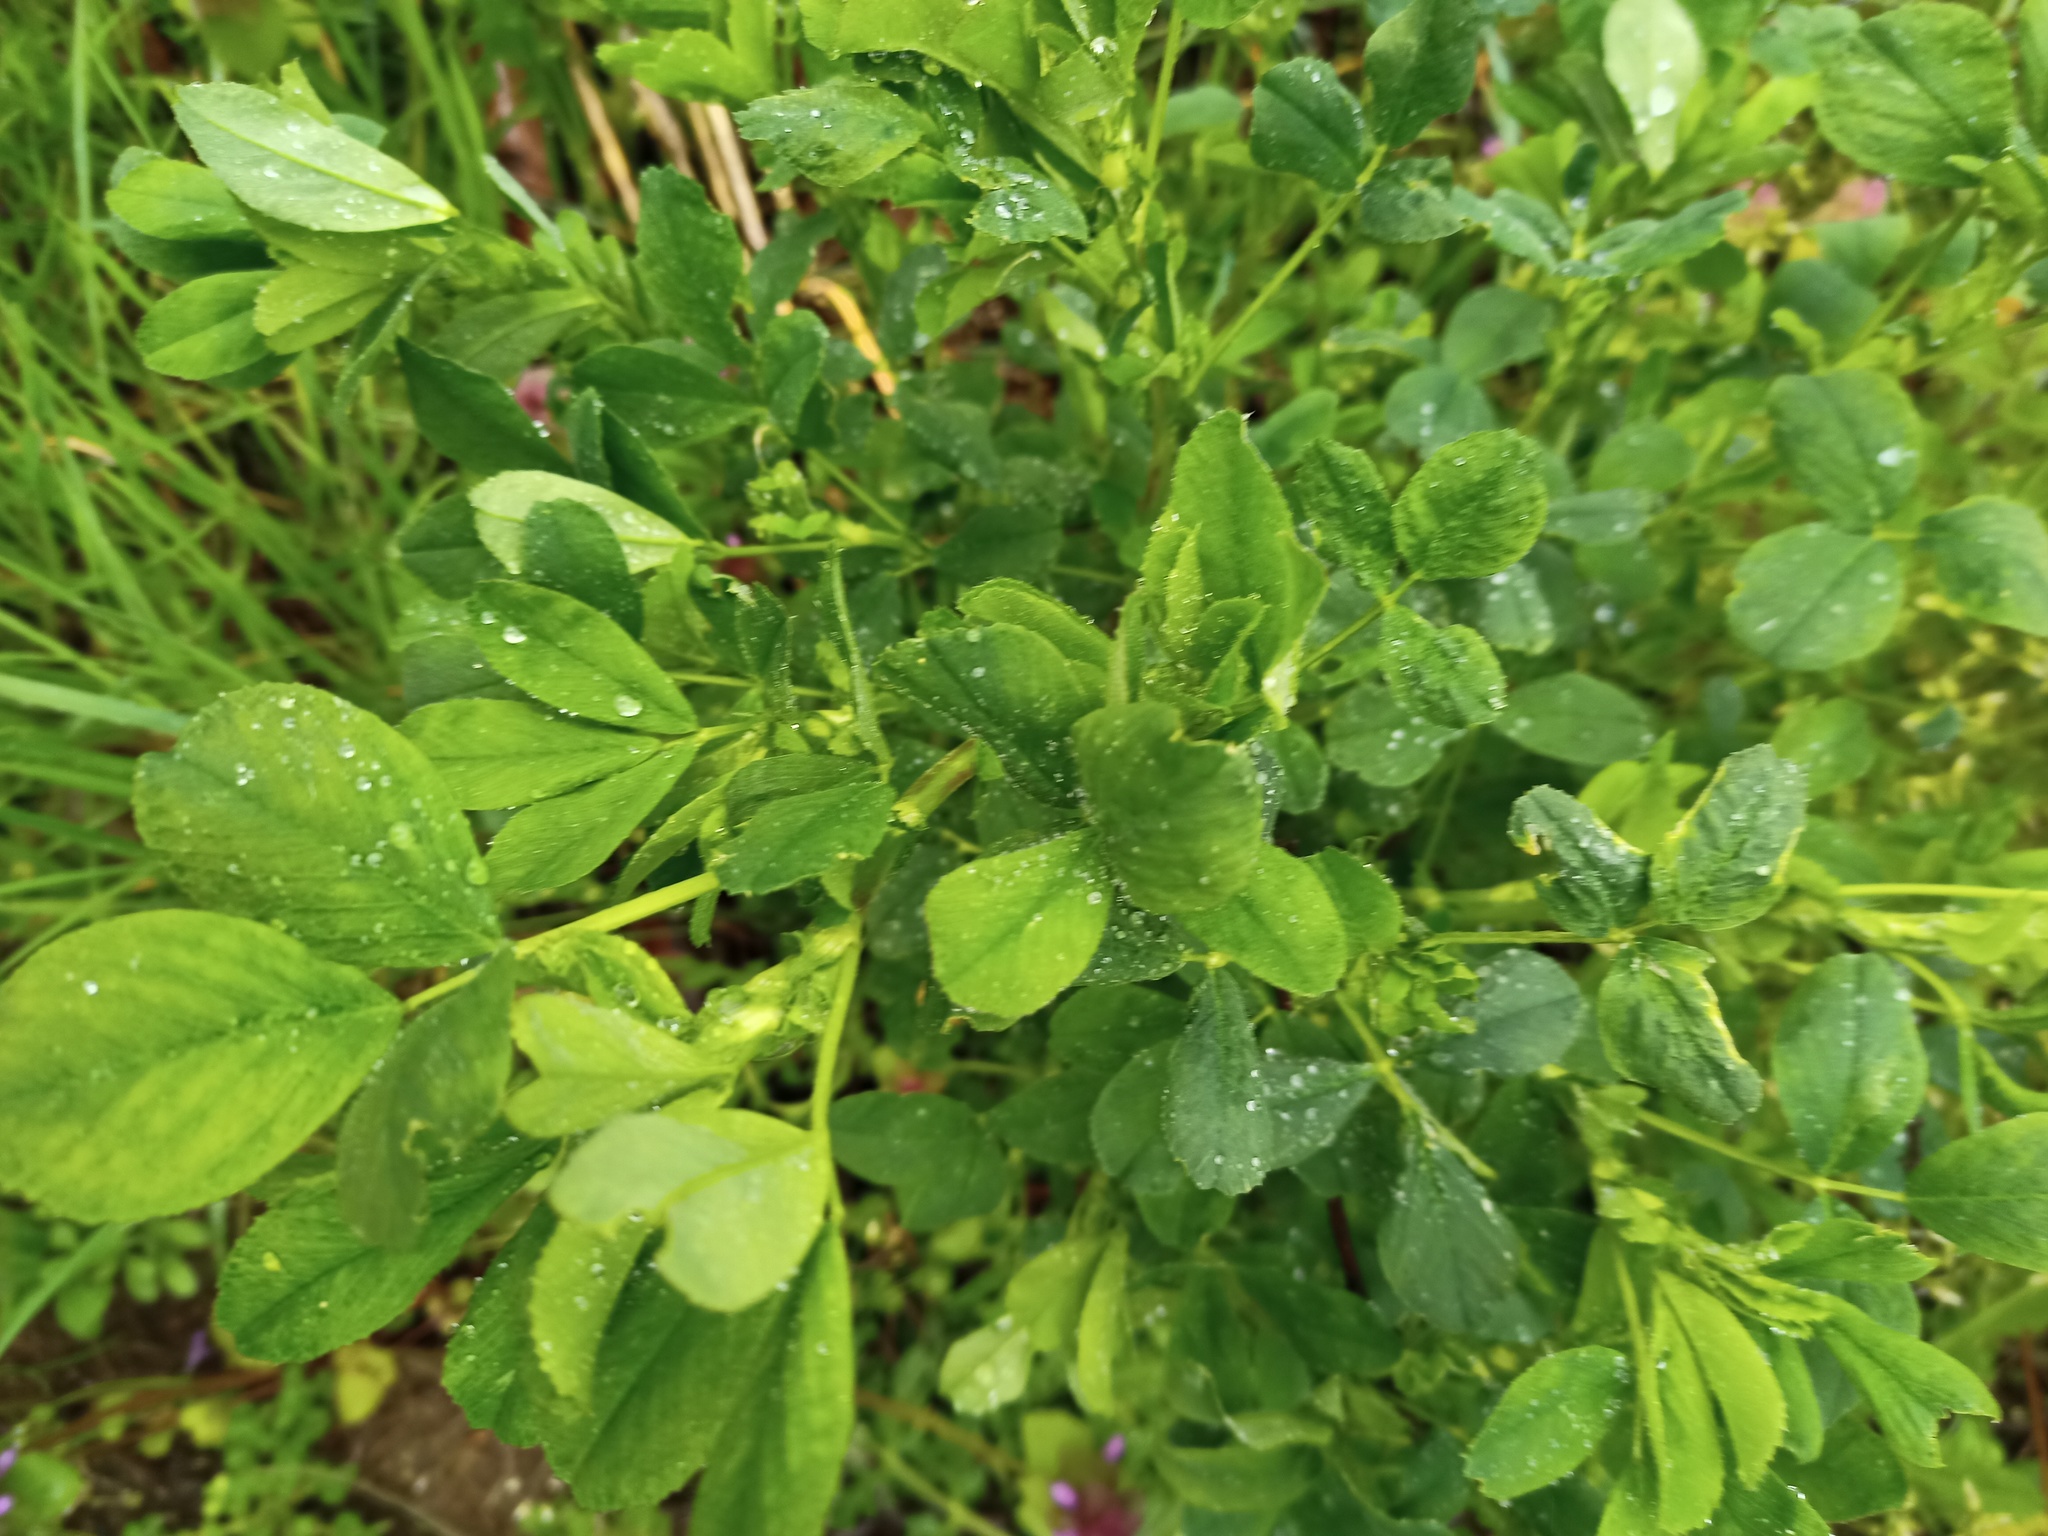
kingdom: Plantae
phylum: Tracheophyta
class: Magnoliopsida
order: Fabales
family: Fabaceae
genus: Medicago
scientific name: Medicago sativa
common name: Alfalfa
